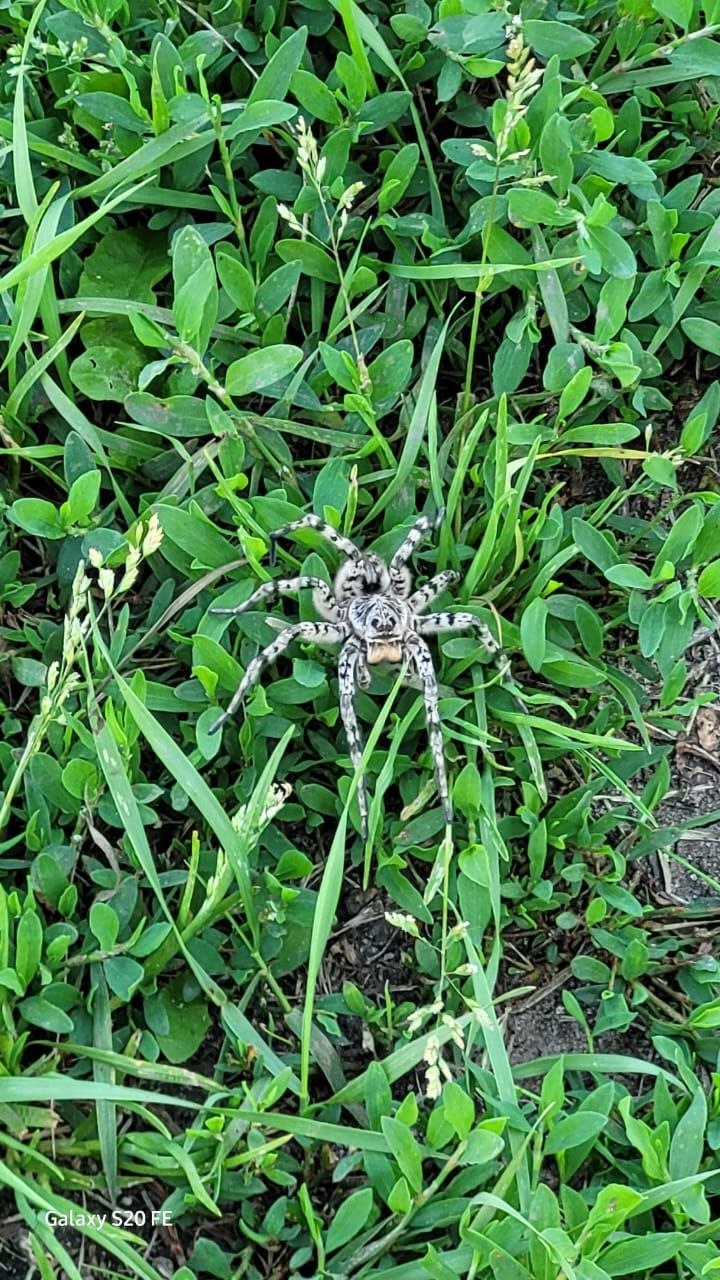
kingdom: Animalia
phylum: Arthropoda
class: Arachnida
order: Araneae
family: Lycosidae
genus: Lycosa
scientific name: Lycosa singoriensis
